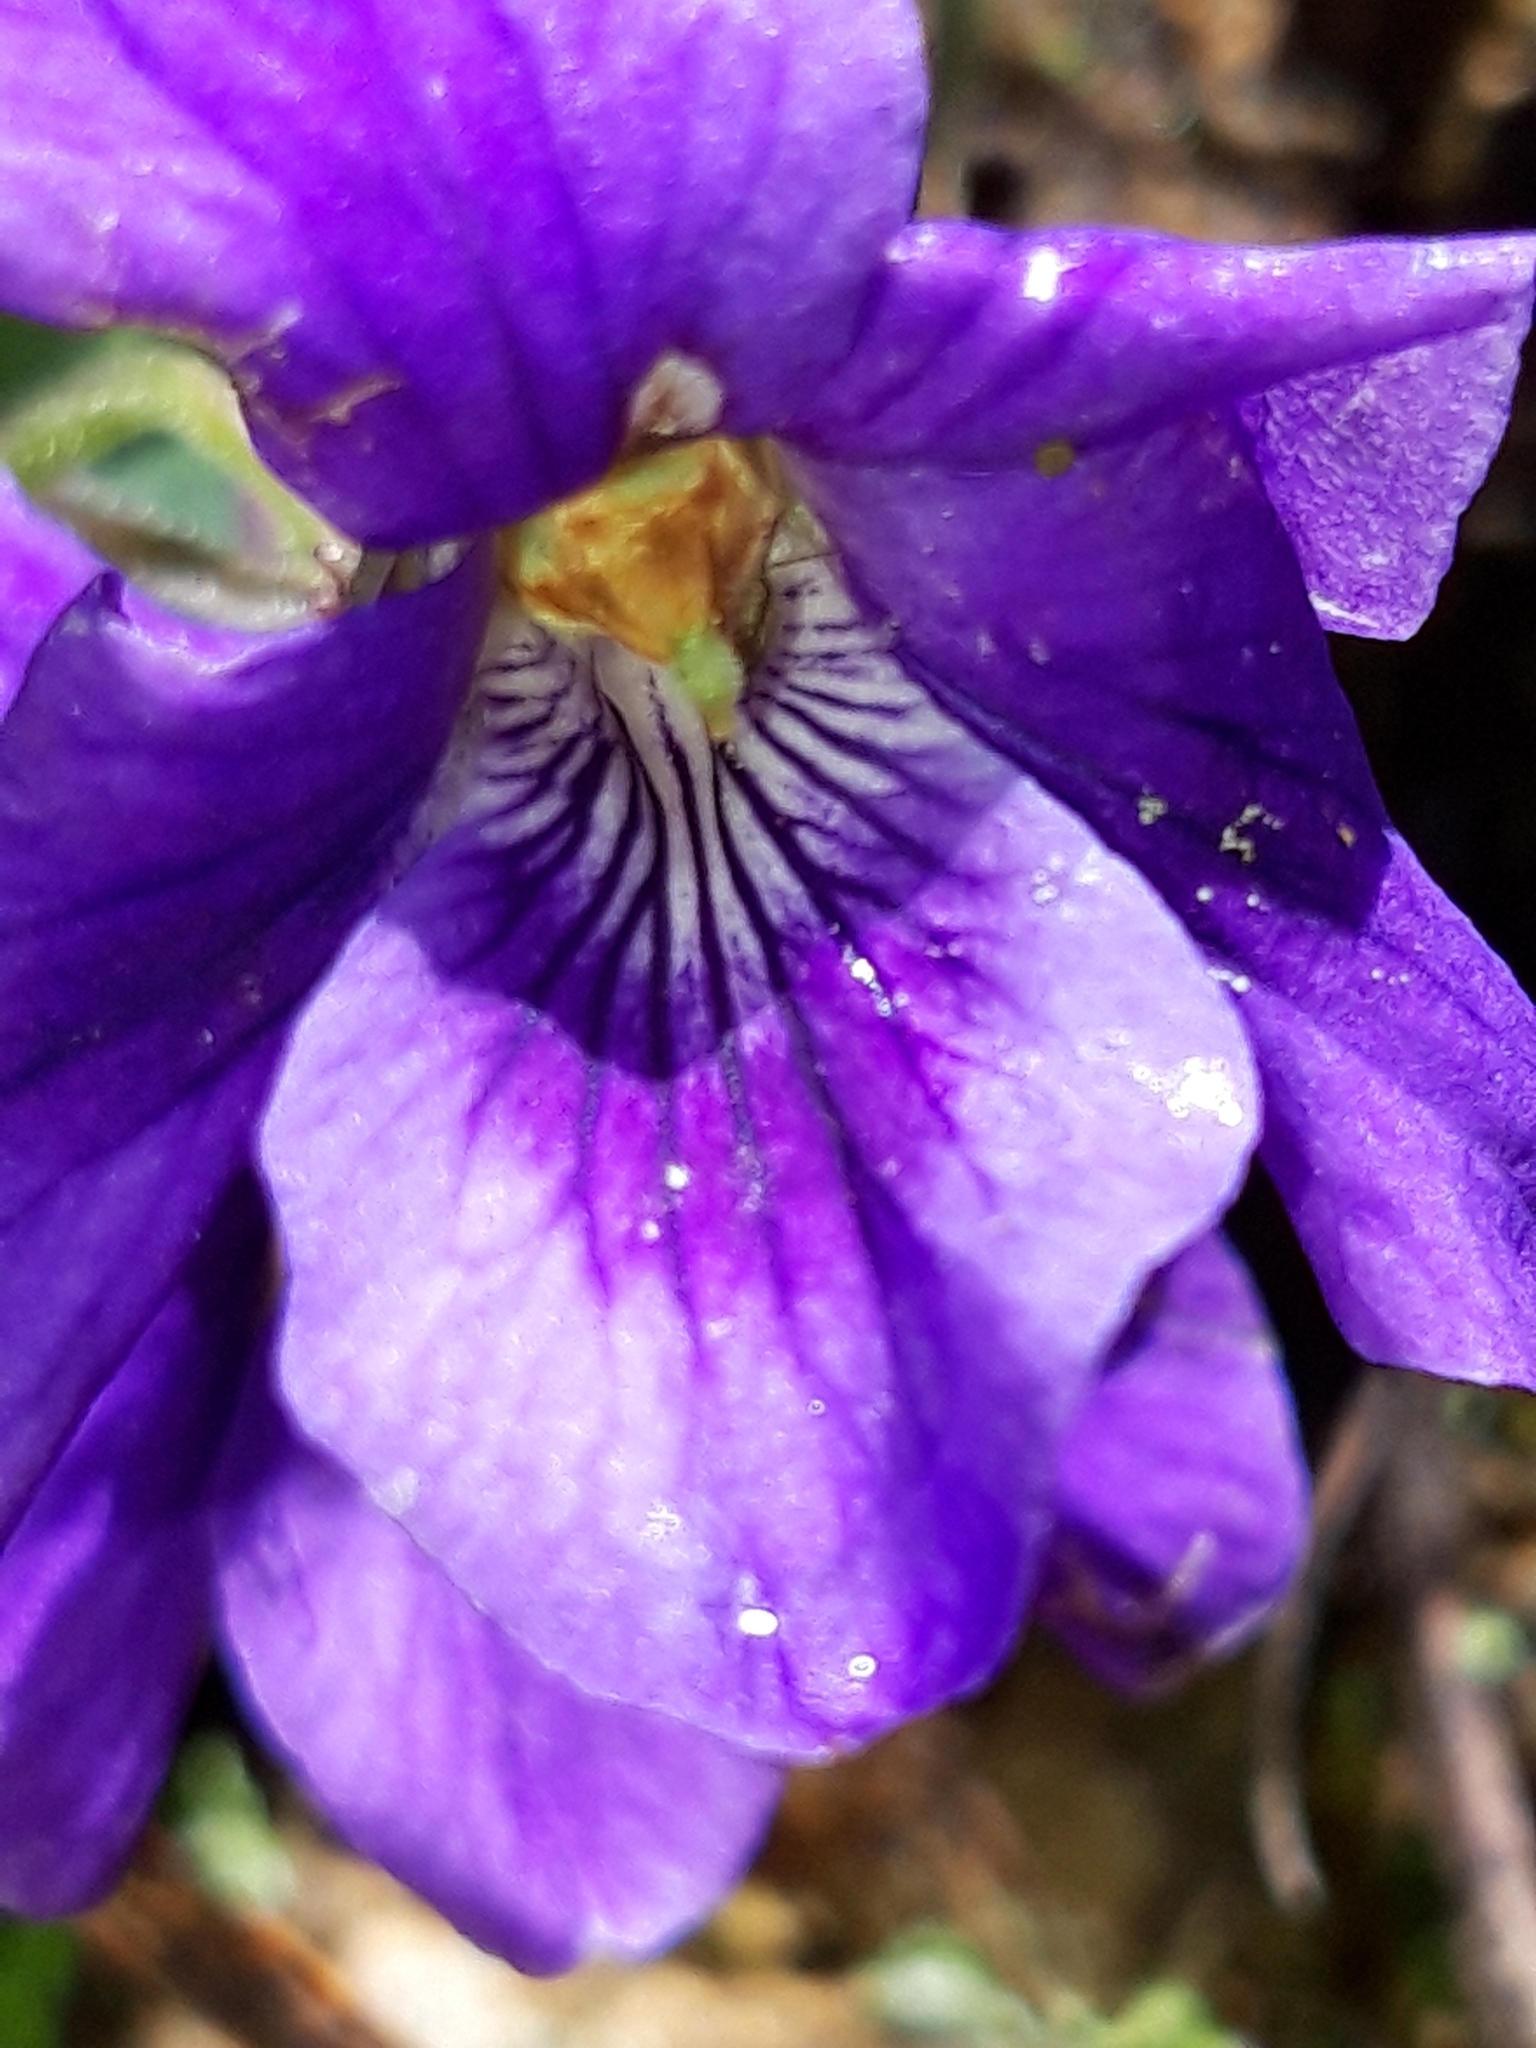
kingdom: Plantae
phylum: Tracheophyta
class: Magnoliopsida
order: Malpighiales
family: Violaceae
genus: Viola
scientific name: Viola odorata
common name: Sweet violet
